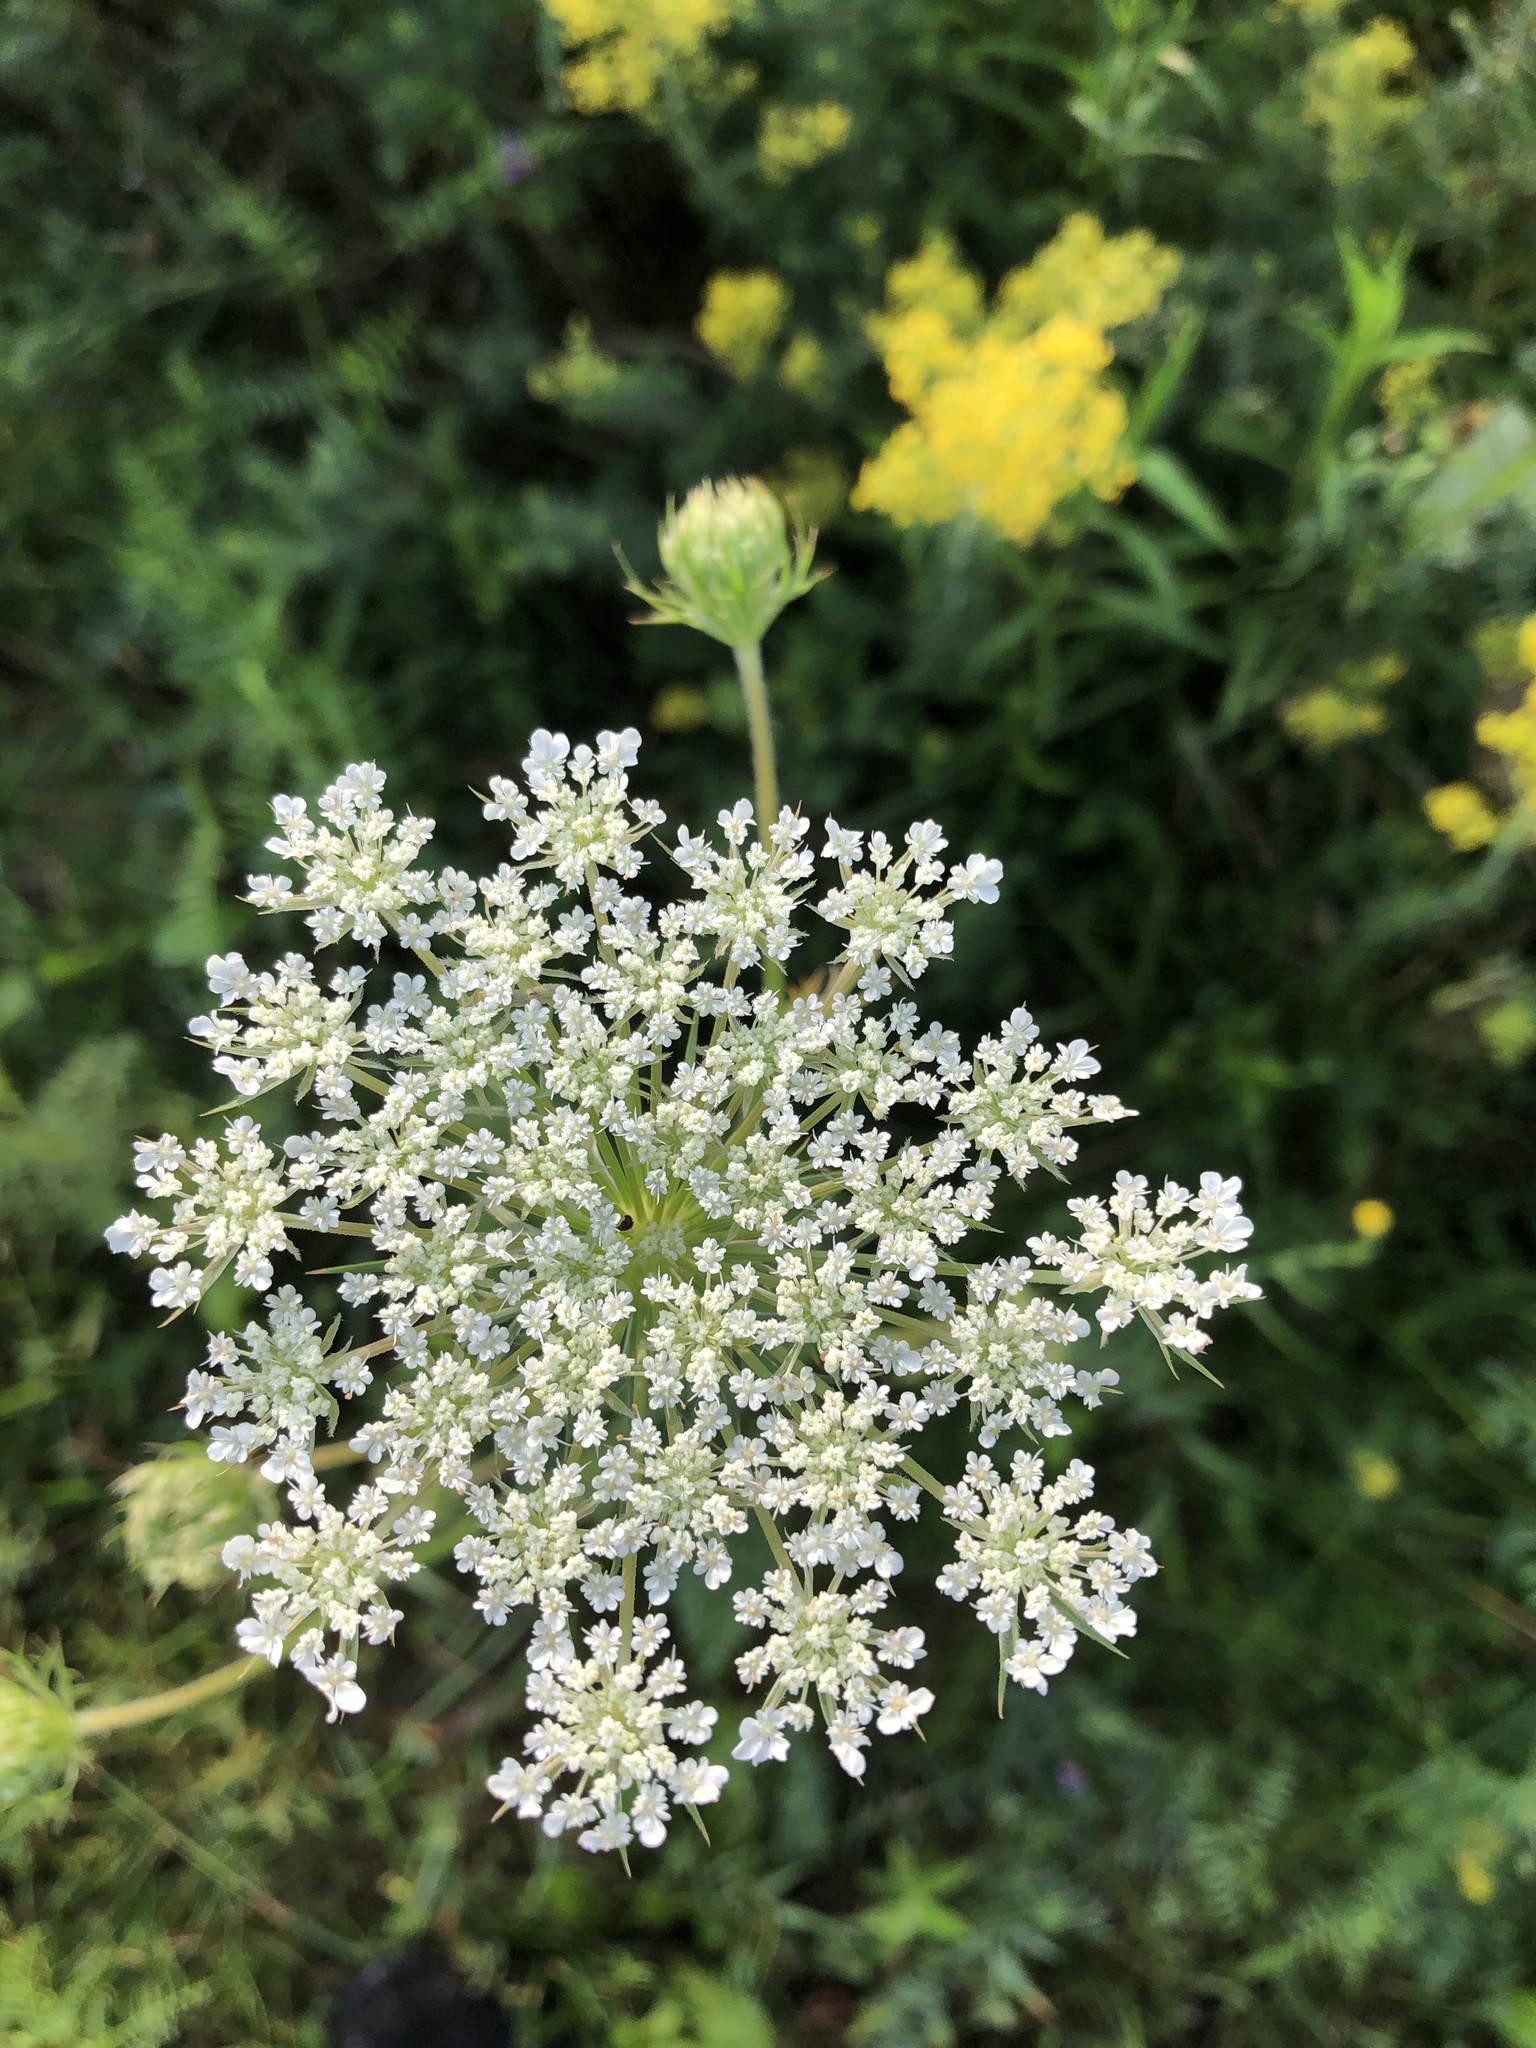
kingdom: Plantae
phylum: Tracheophyta
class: Magnoliopsida
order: Apiales
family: Apiaceae
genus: Daucus
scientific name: Daucus carota
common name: Wild carrot
